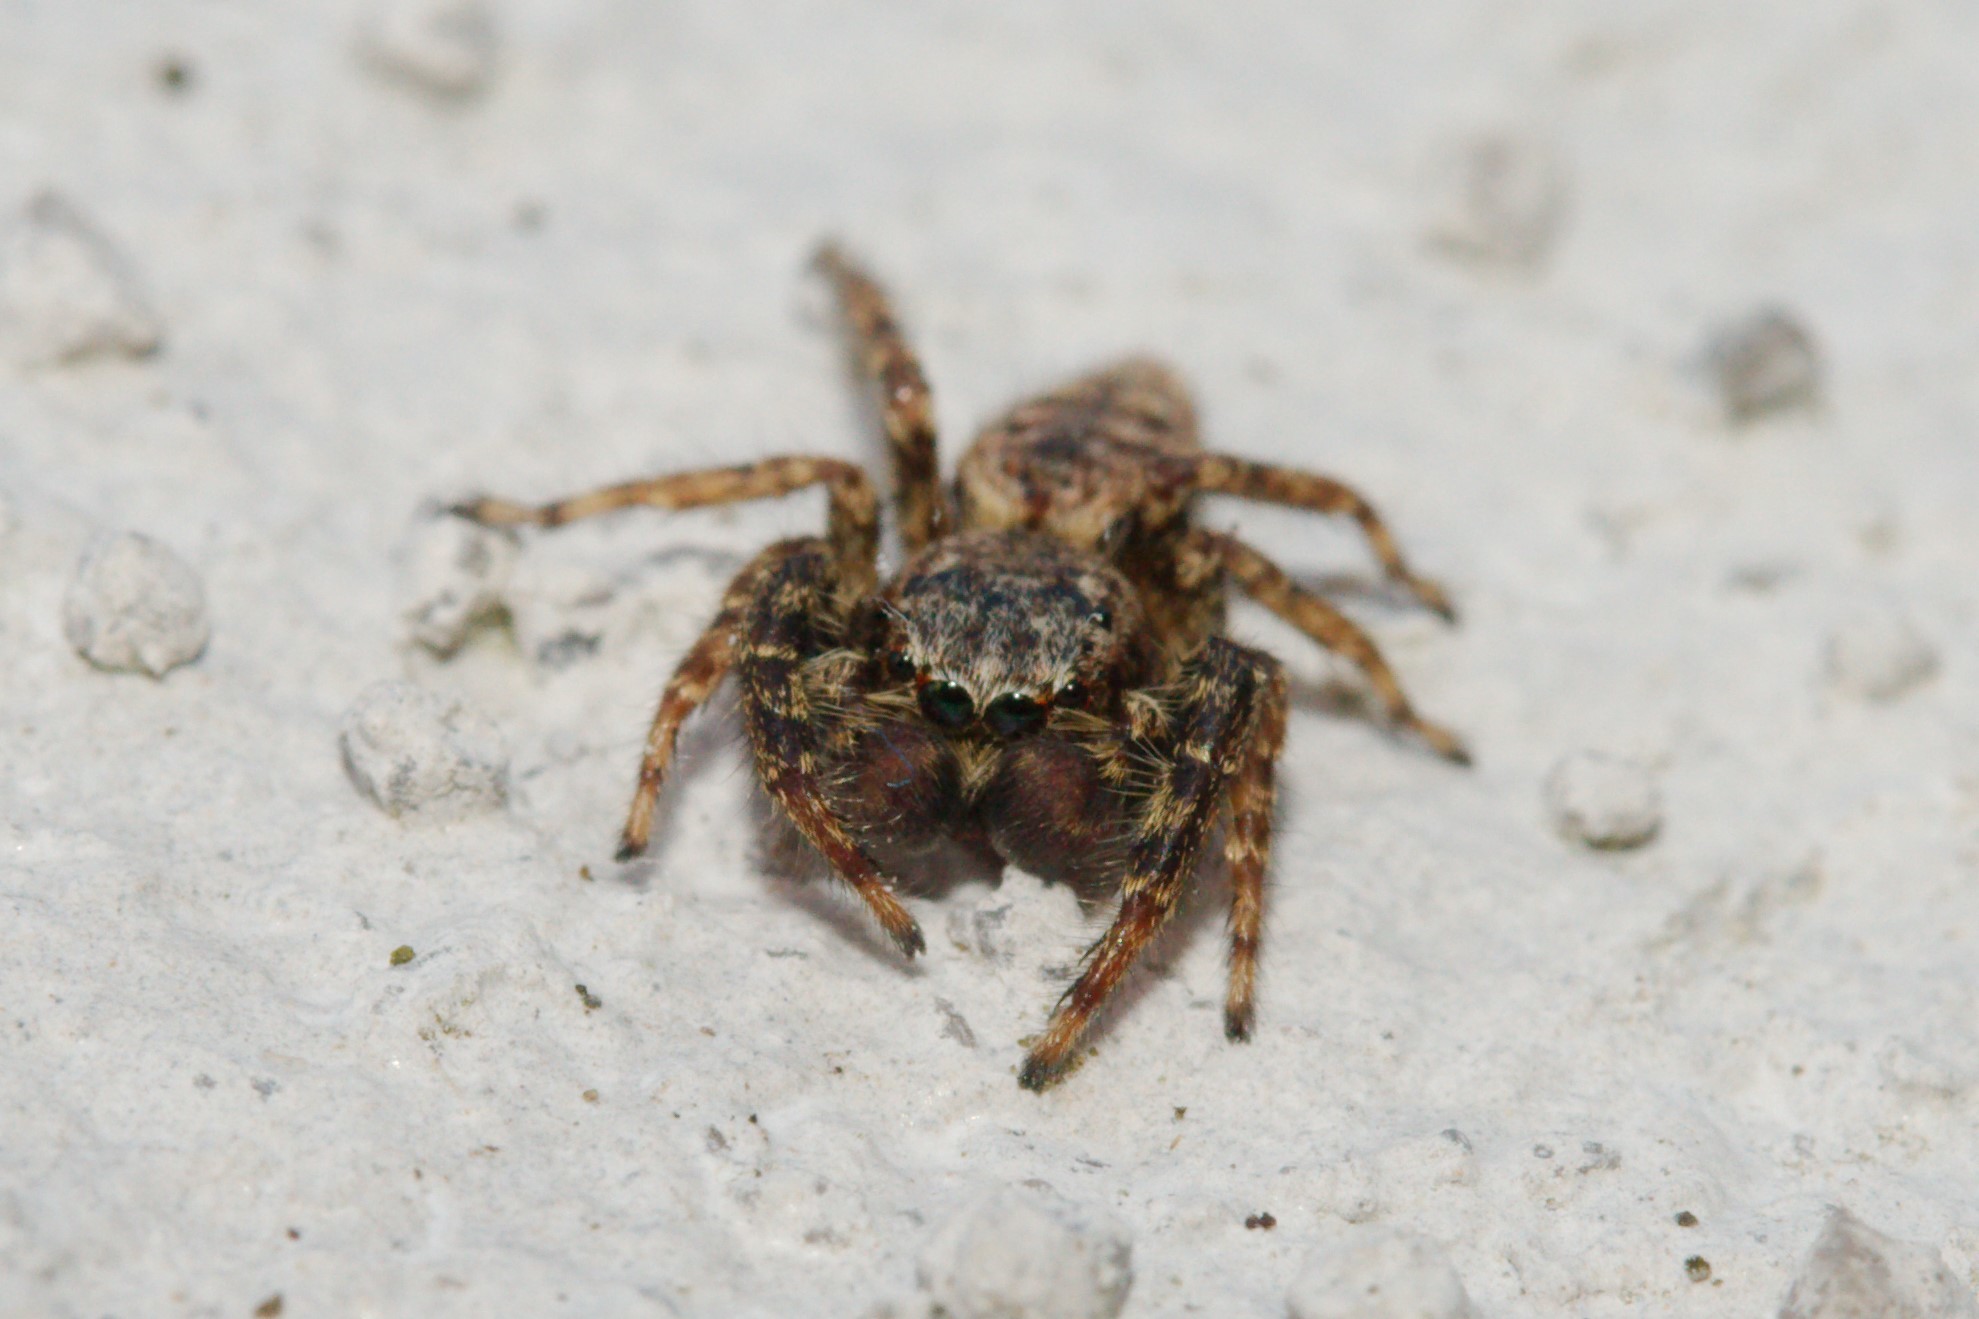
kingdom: Animalia
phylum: Arthropoda
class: Arachnida
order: Araneae
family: Salticidae
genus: Marpissa
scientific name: Marpissa muscosa
